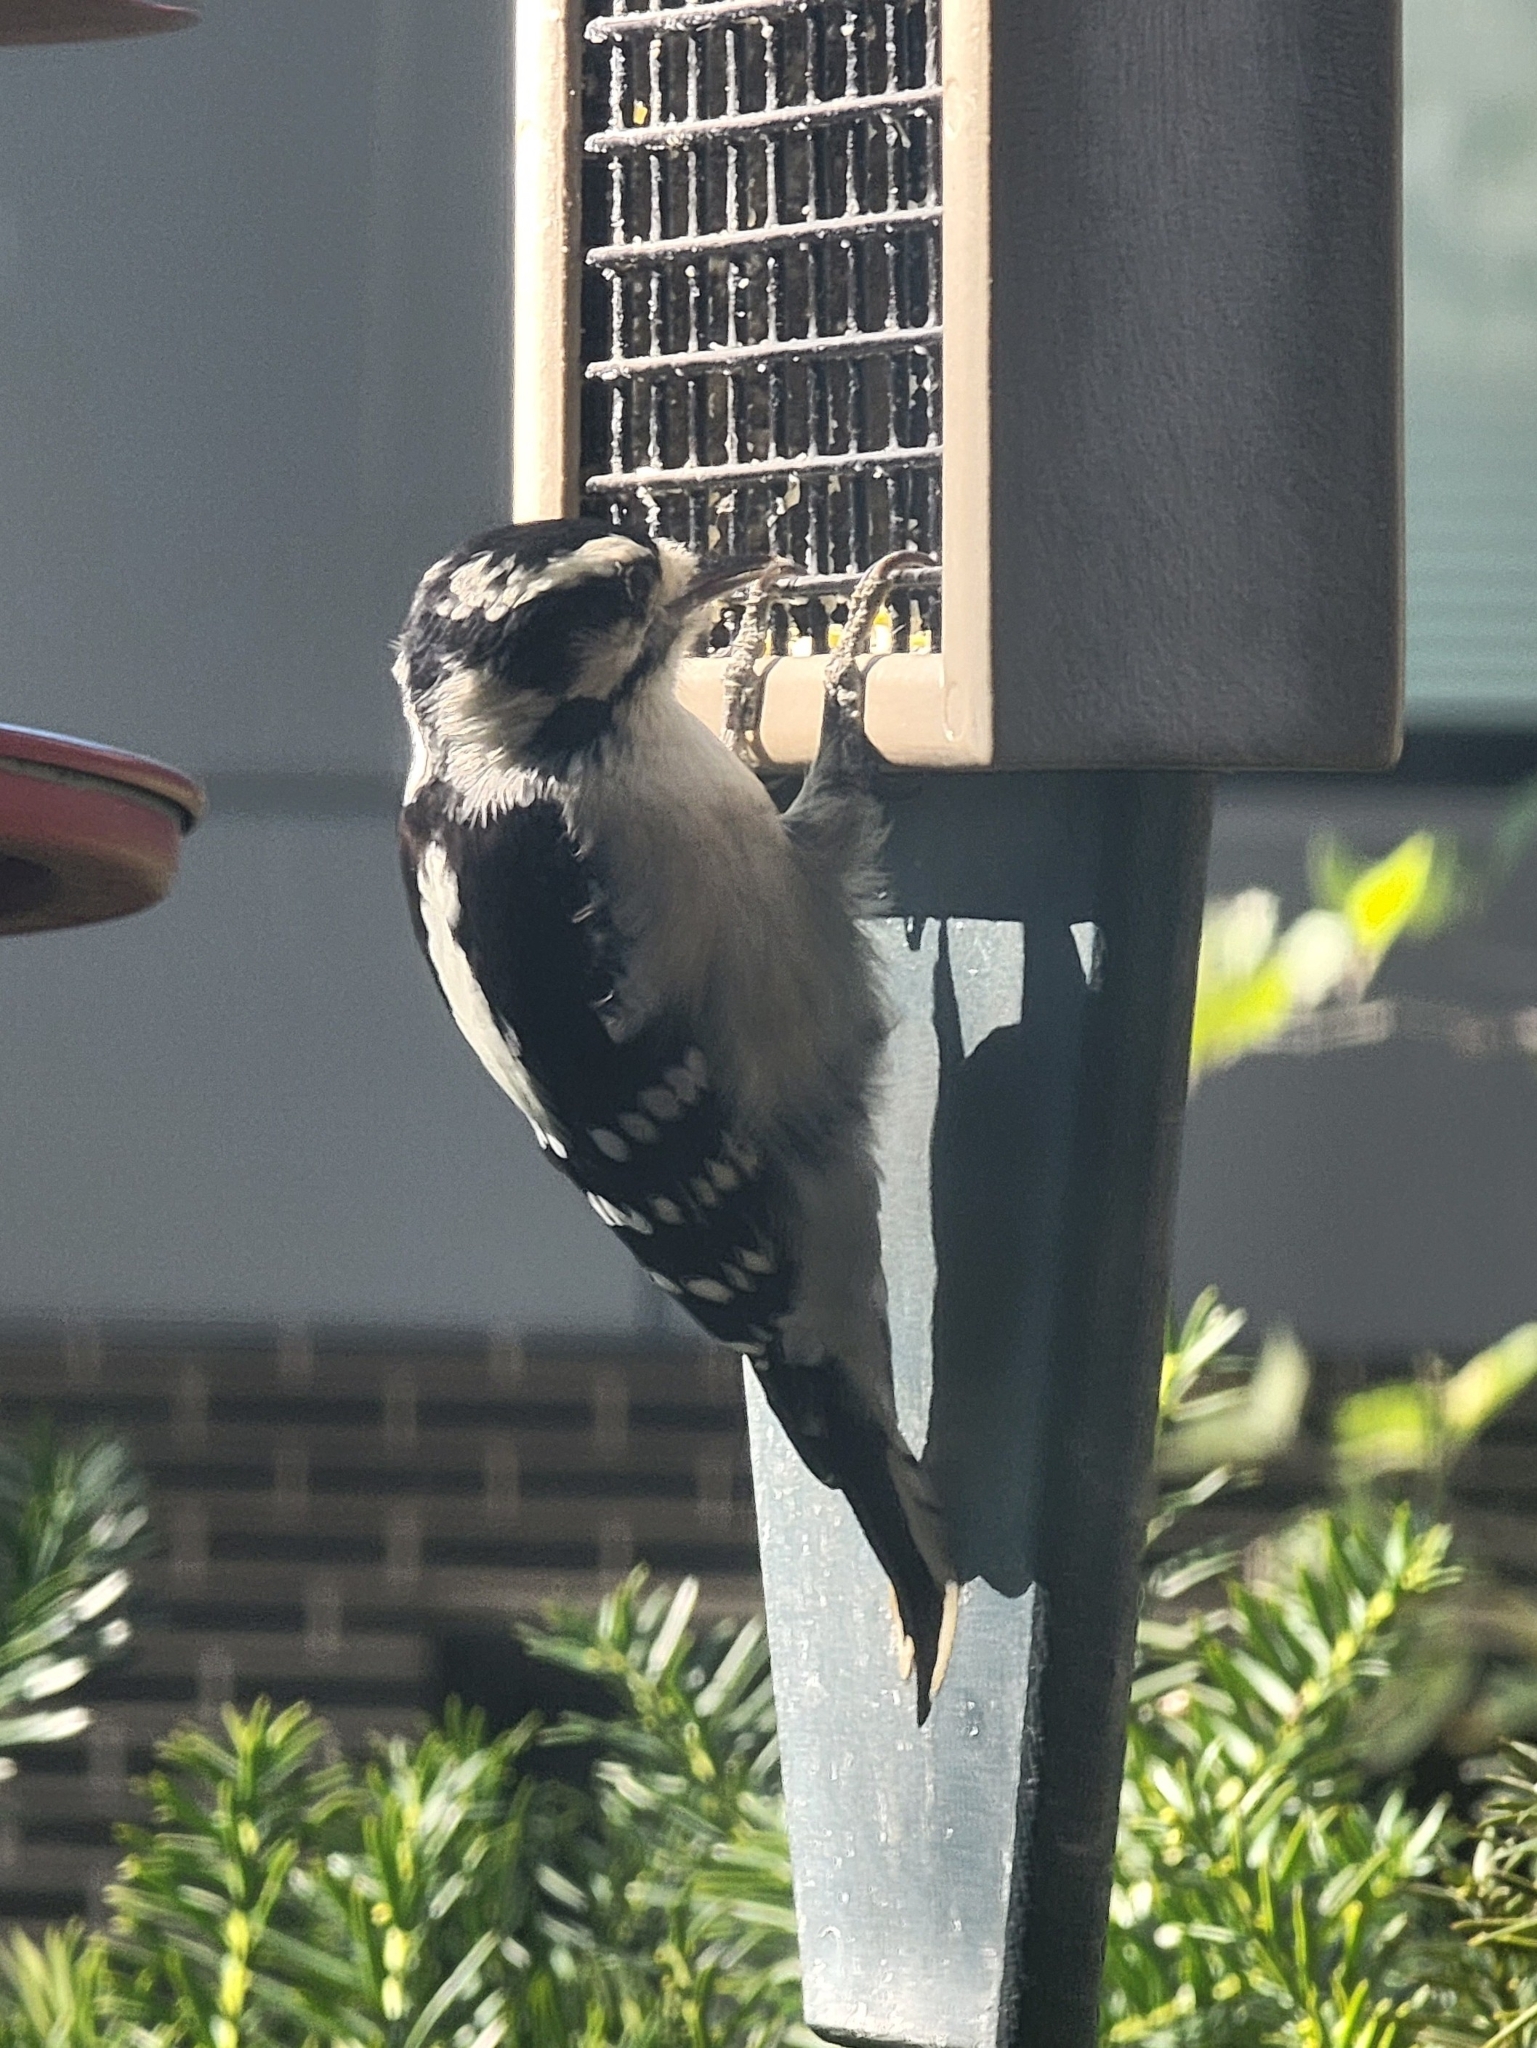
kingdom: Animalia
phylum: Chordata
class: Aves
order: Piciformes
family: Picidae
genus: Dryobates
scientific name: Dryobates pubescens
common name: Downy woodpecker
